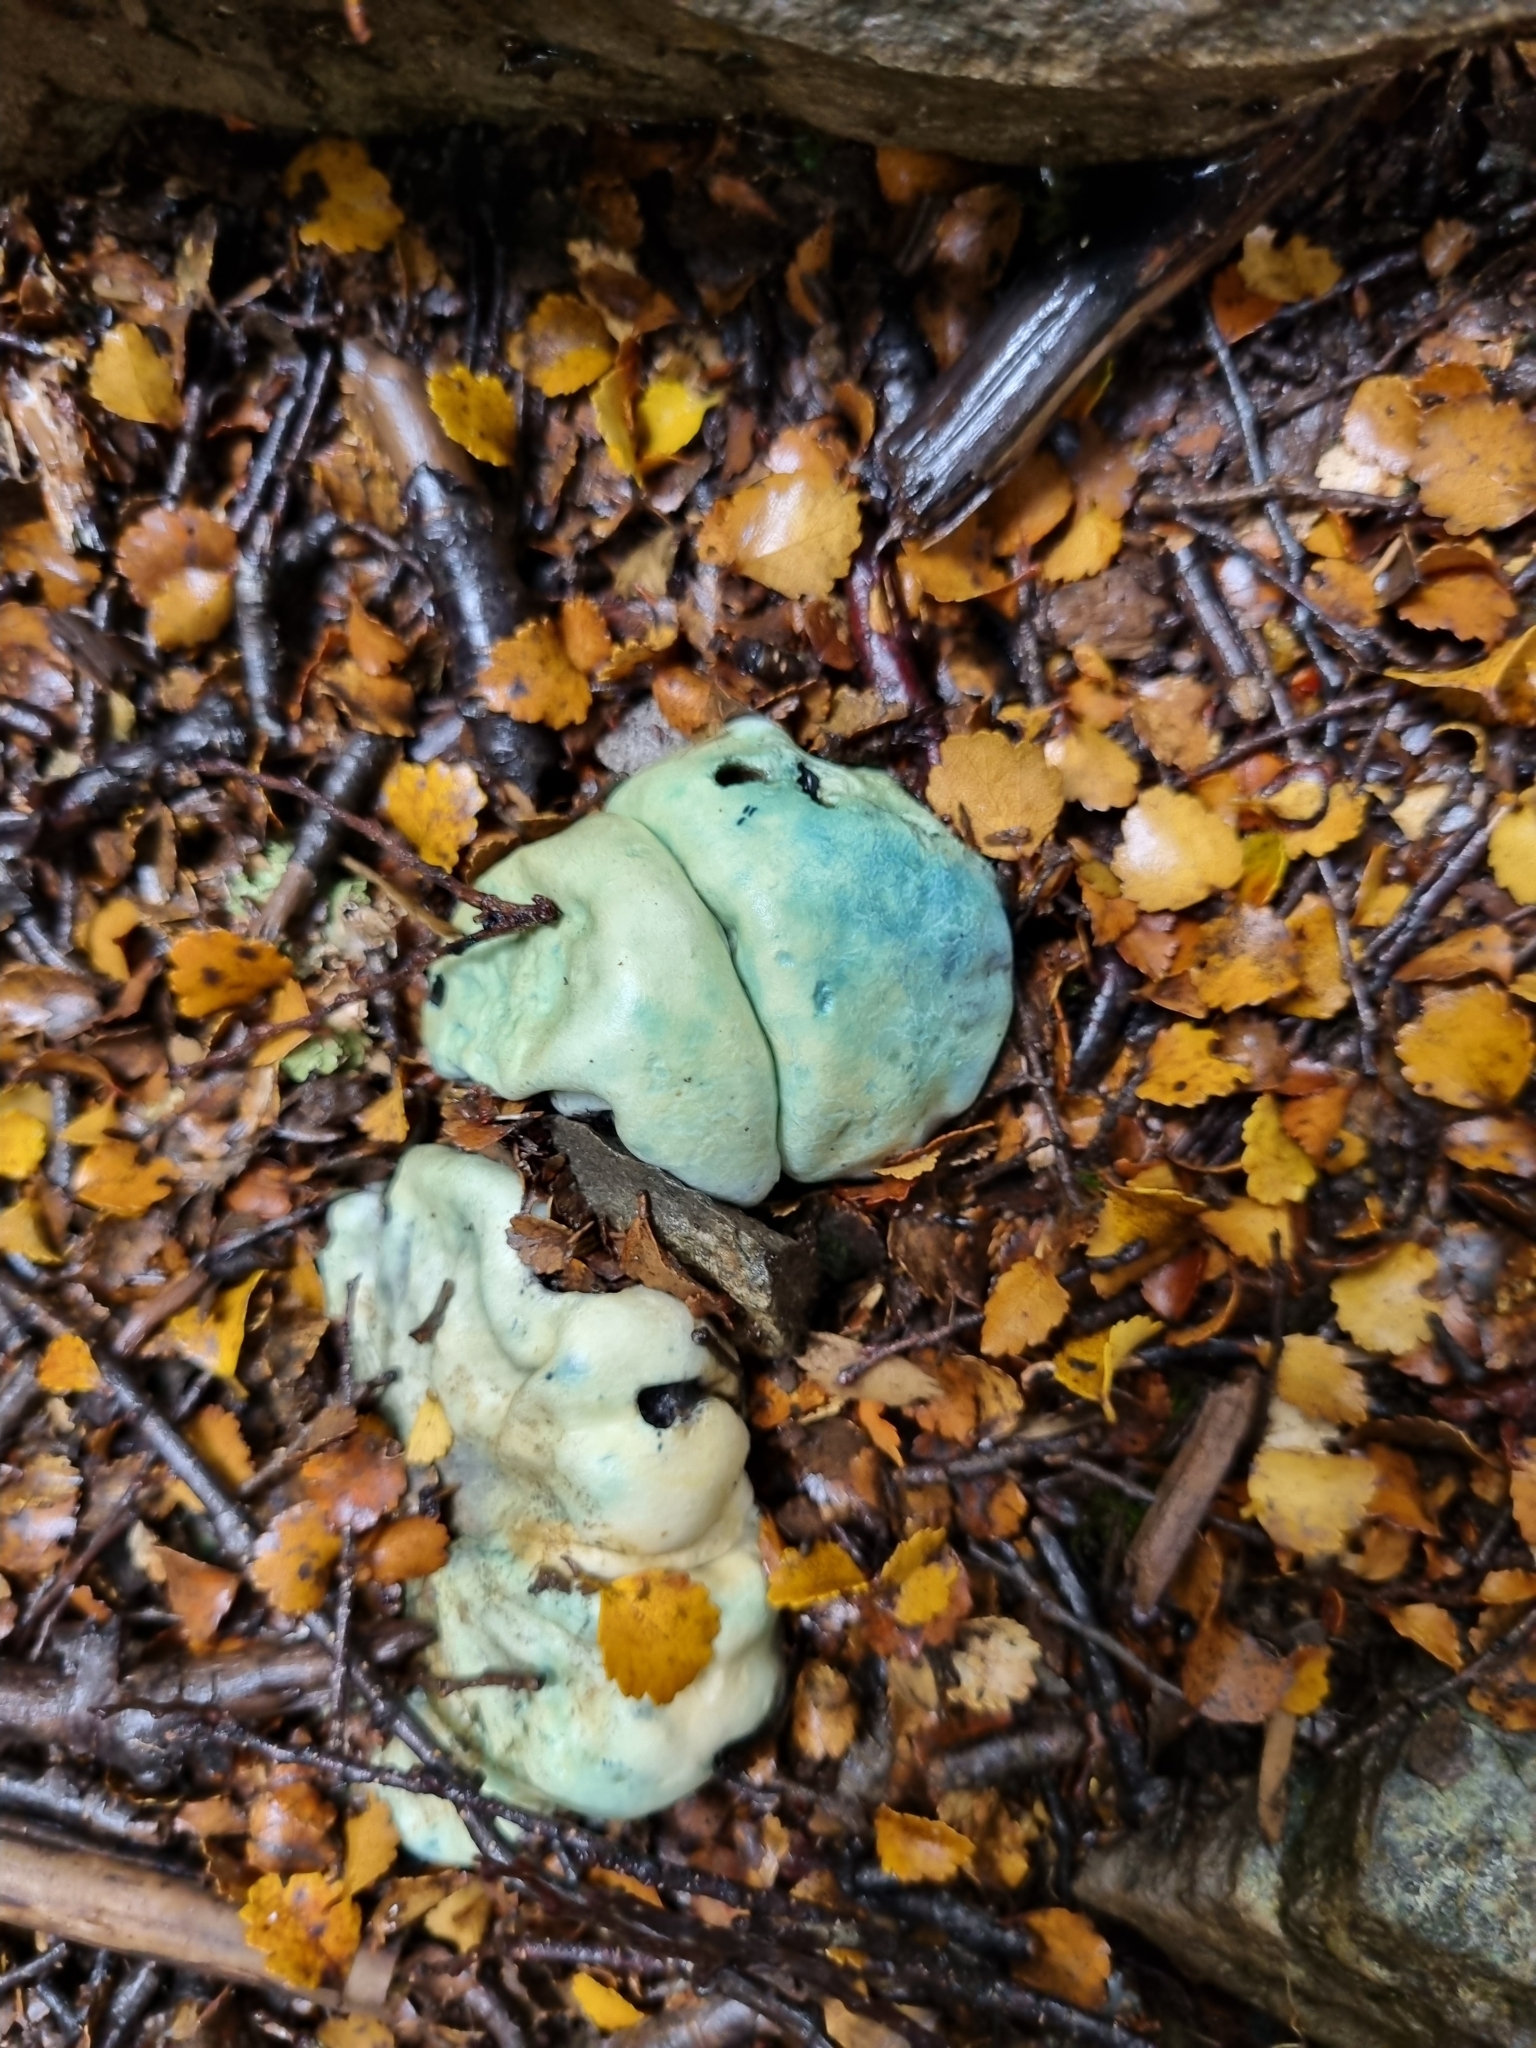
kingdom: Fungi
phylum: Basidiomycota
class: Agaricomycetes
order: Boletales
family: Boletaceae
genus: Leccinum
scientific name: Leccinum pachyderme
